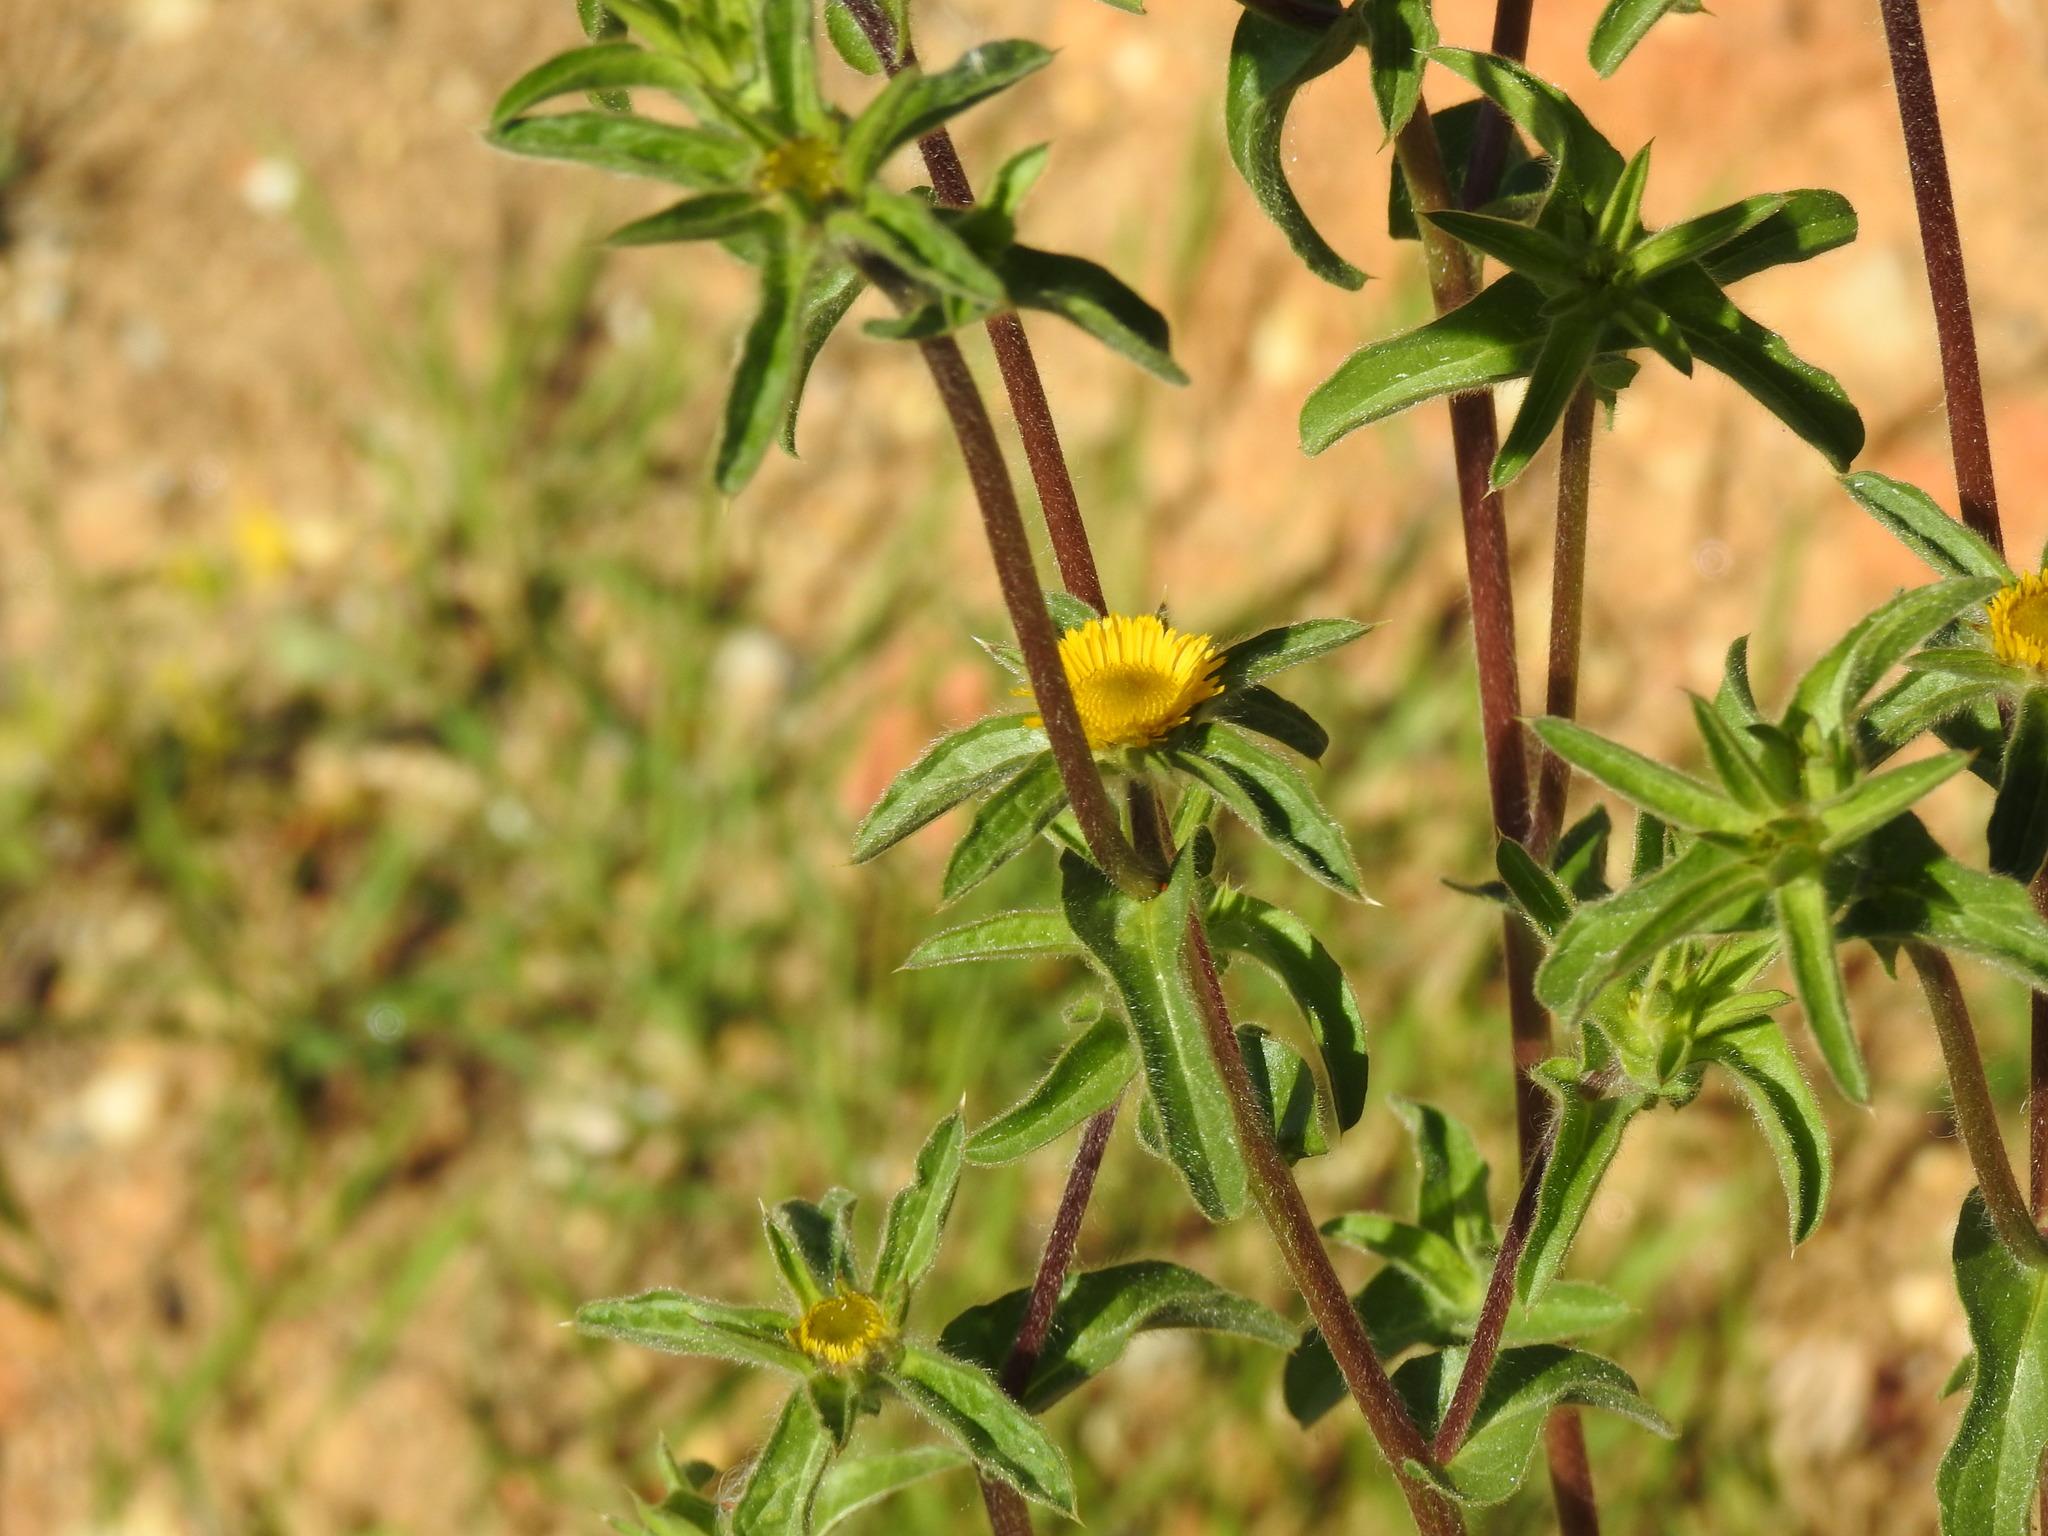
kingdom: Plantae
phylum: Tracheophyta
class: Magnoliopsida
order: Asterales
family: Asteraceae
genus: Pallenis
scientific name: Pallenis spinosa
